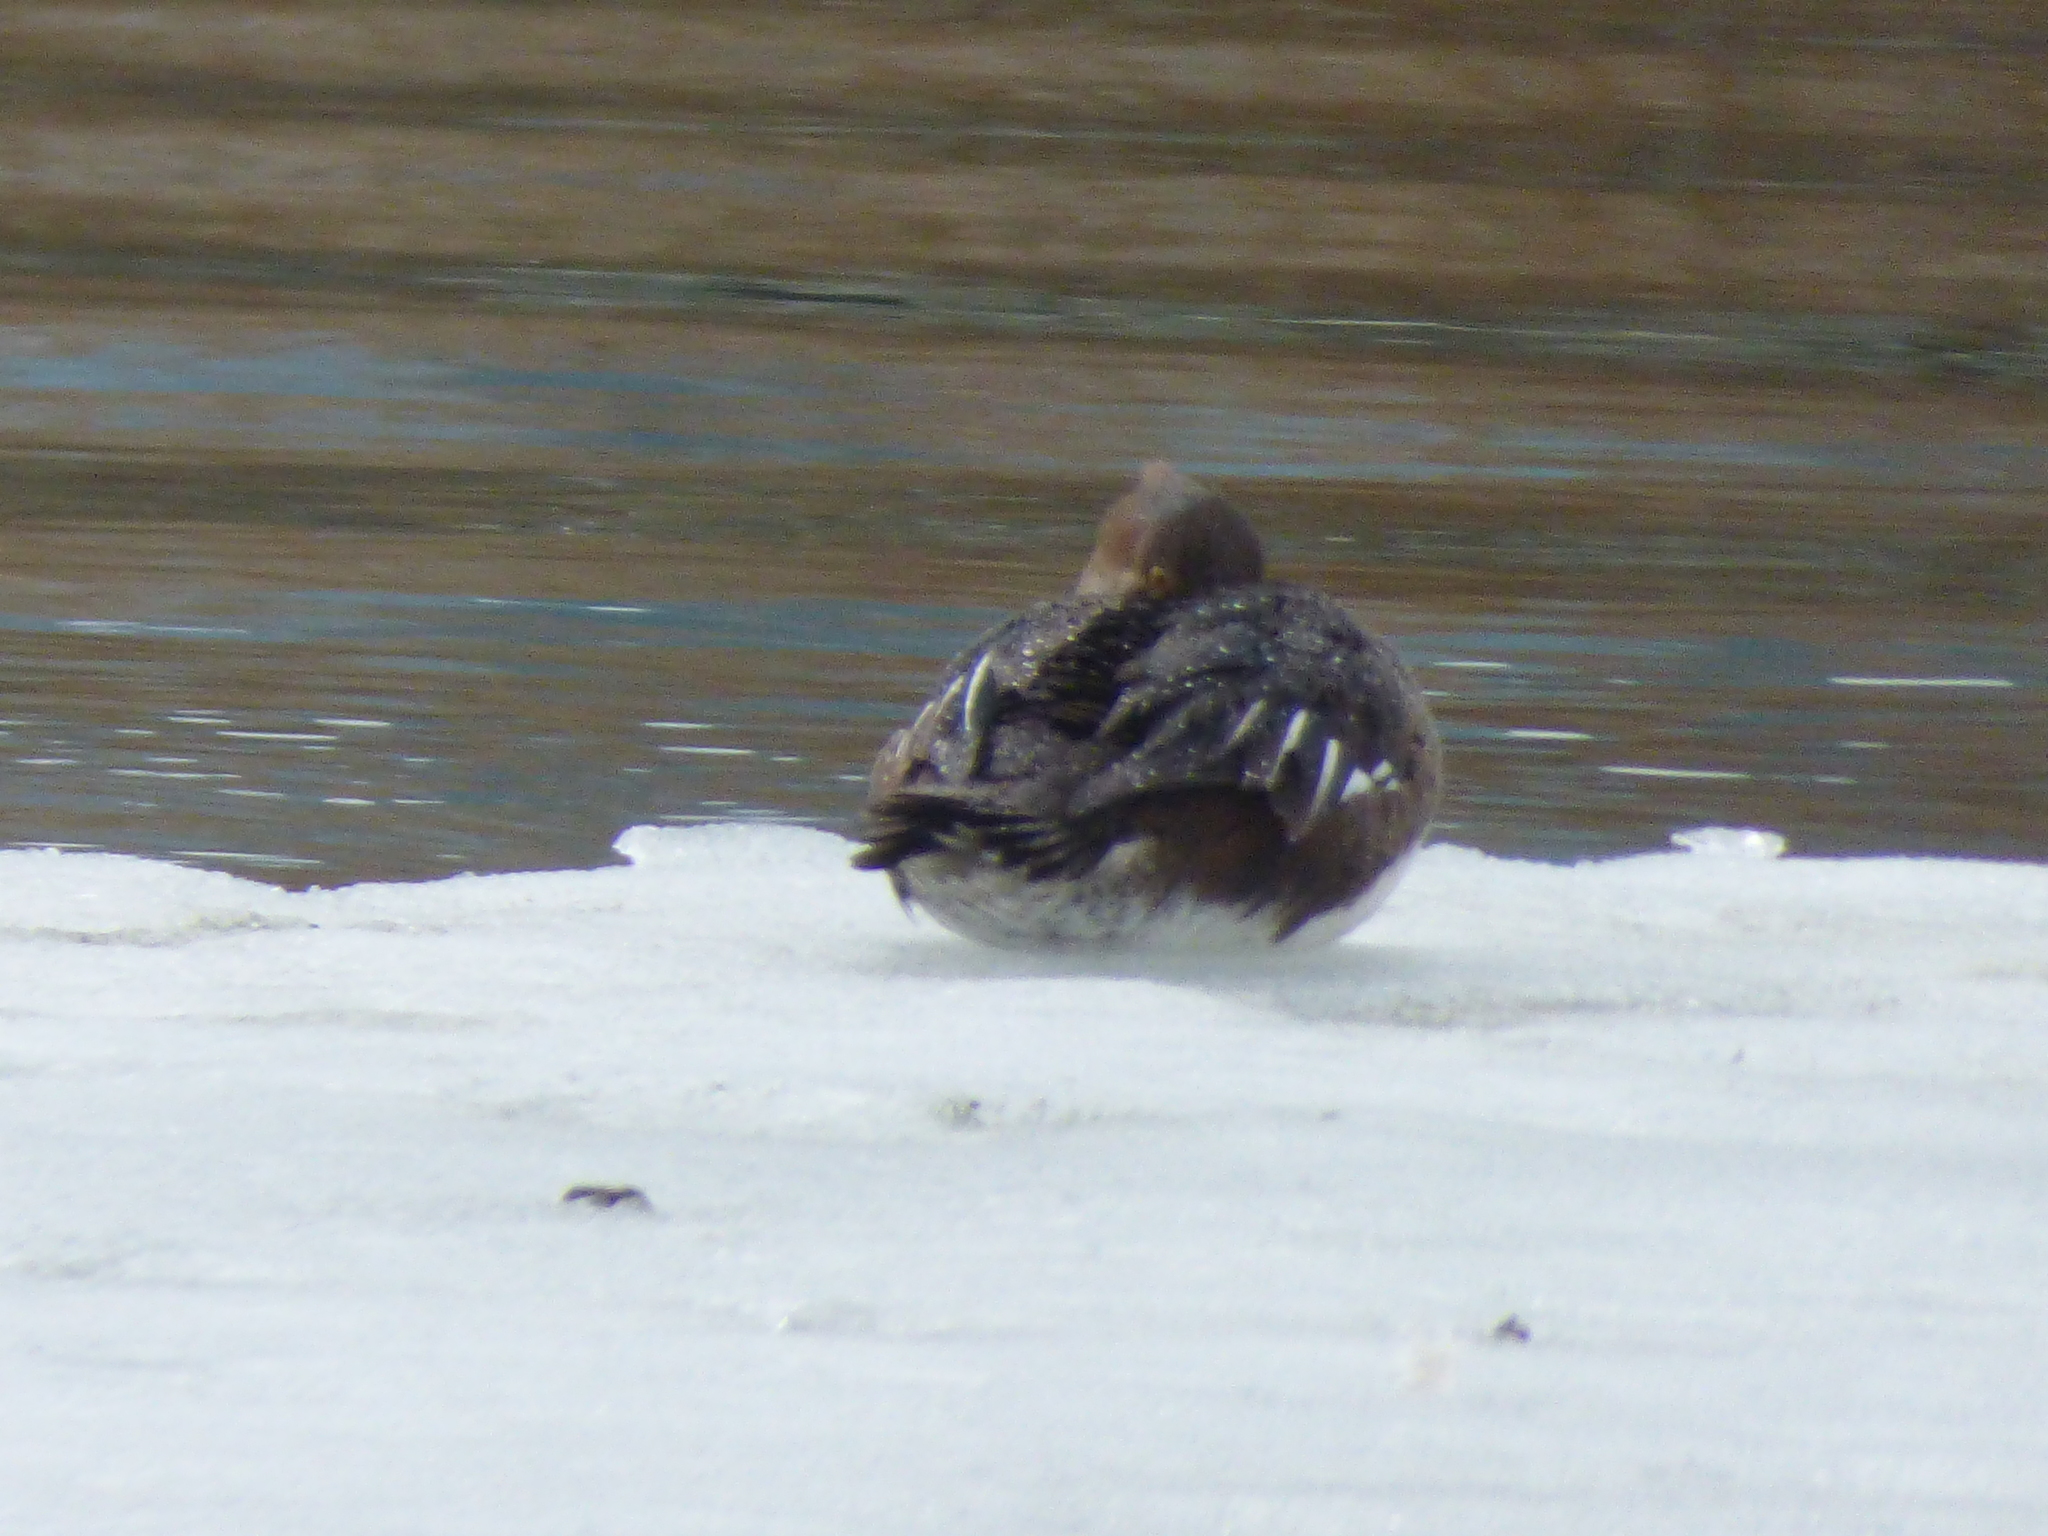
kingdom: Animalia
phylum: Chordata
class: Aves
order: Anseriformes
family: Anatidae
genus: Lophodytes
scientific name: Lophodytes cucullatus
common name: Hooded merganser
